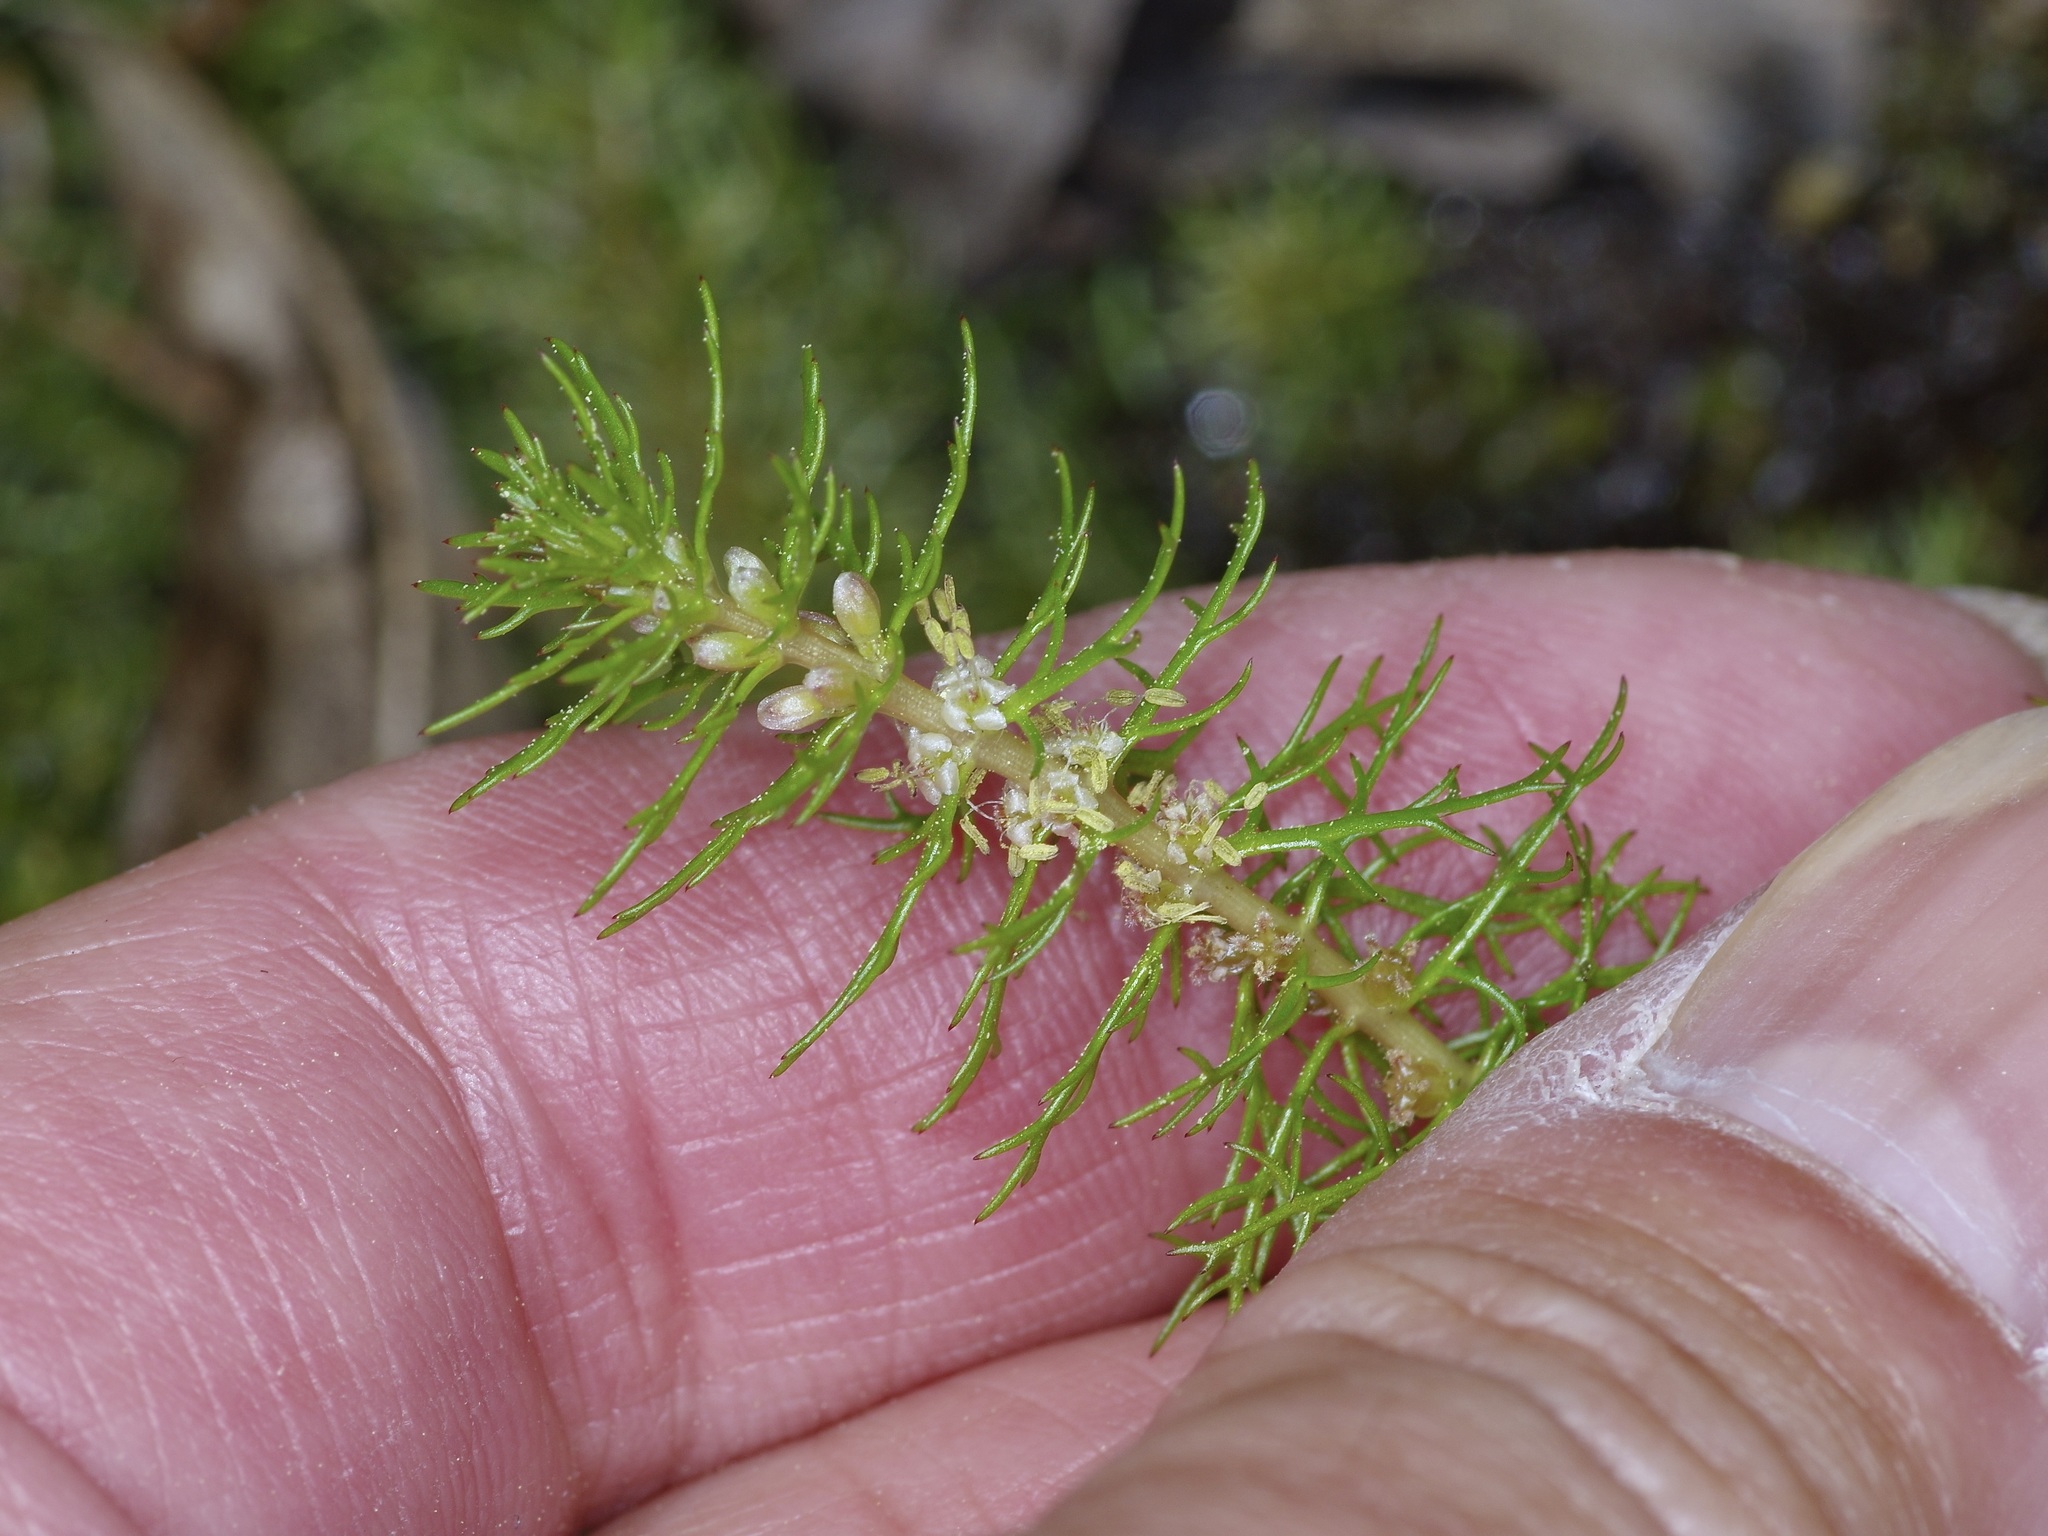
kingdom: Plantae
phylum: Tracheophyta
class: Magnoliopsida
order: Saxifragales
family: Haloragaceae
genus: Myriophyllum
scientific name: Myriophyllum pinnatum
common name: Cut-leaved water-milfoil
